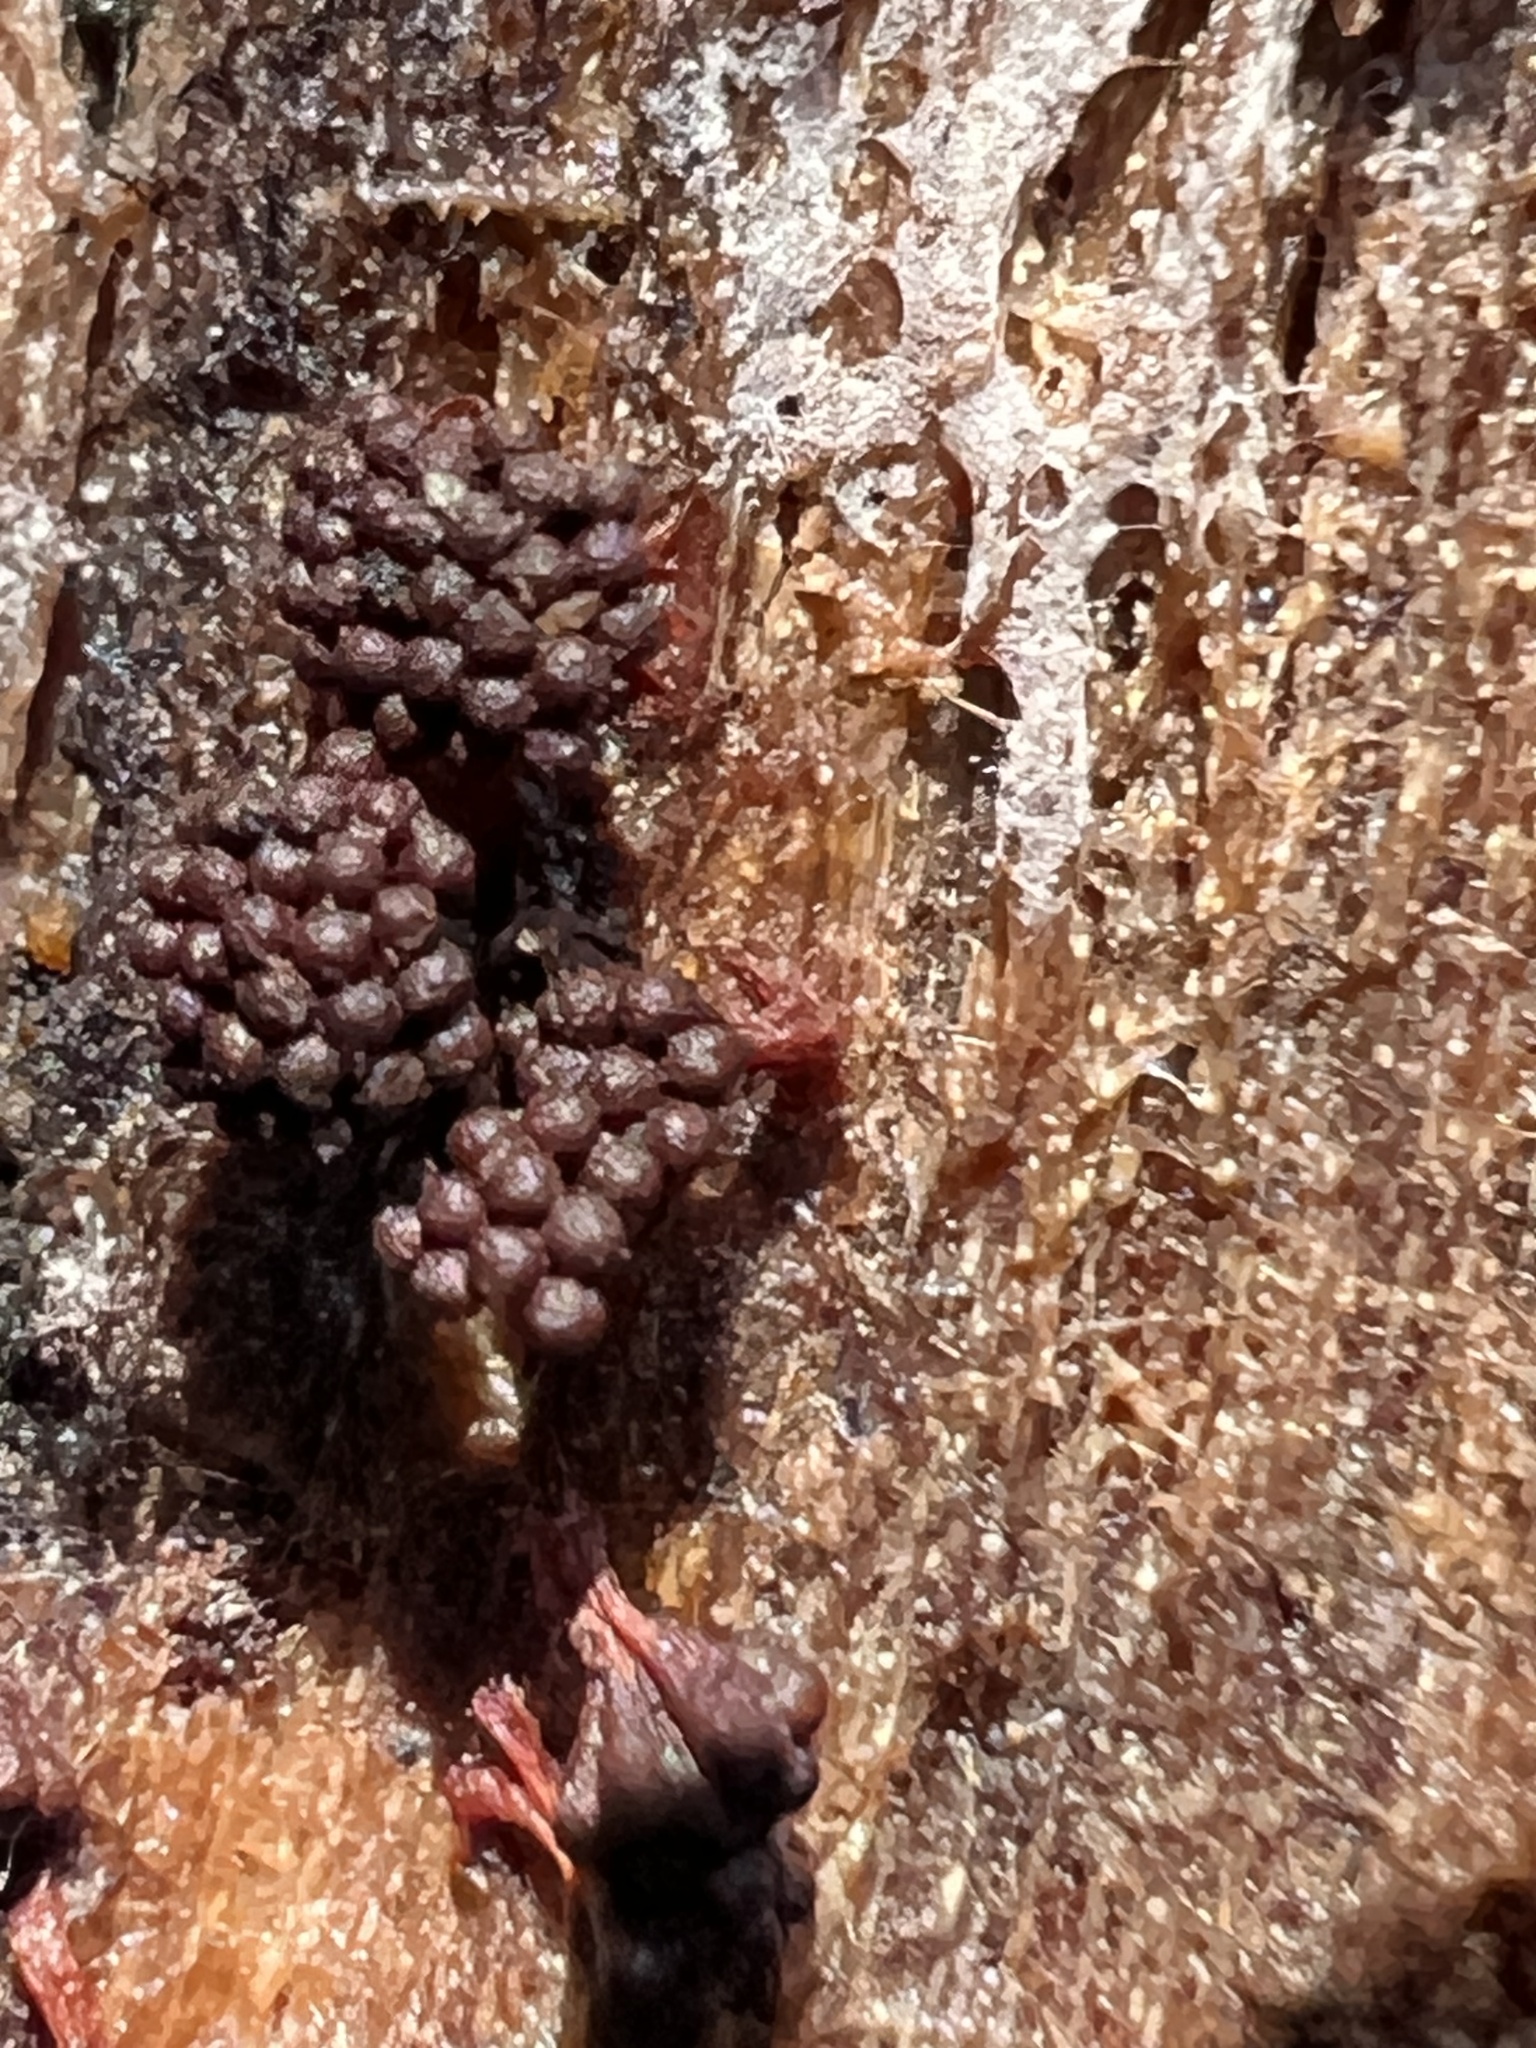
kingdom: Protozoa
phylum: Mycetozoa
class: Myxomycetes
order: Trichiales
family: Trichiaceae
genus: Metatrichia
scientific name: Metatrichia vesparia
